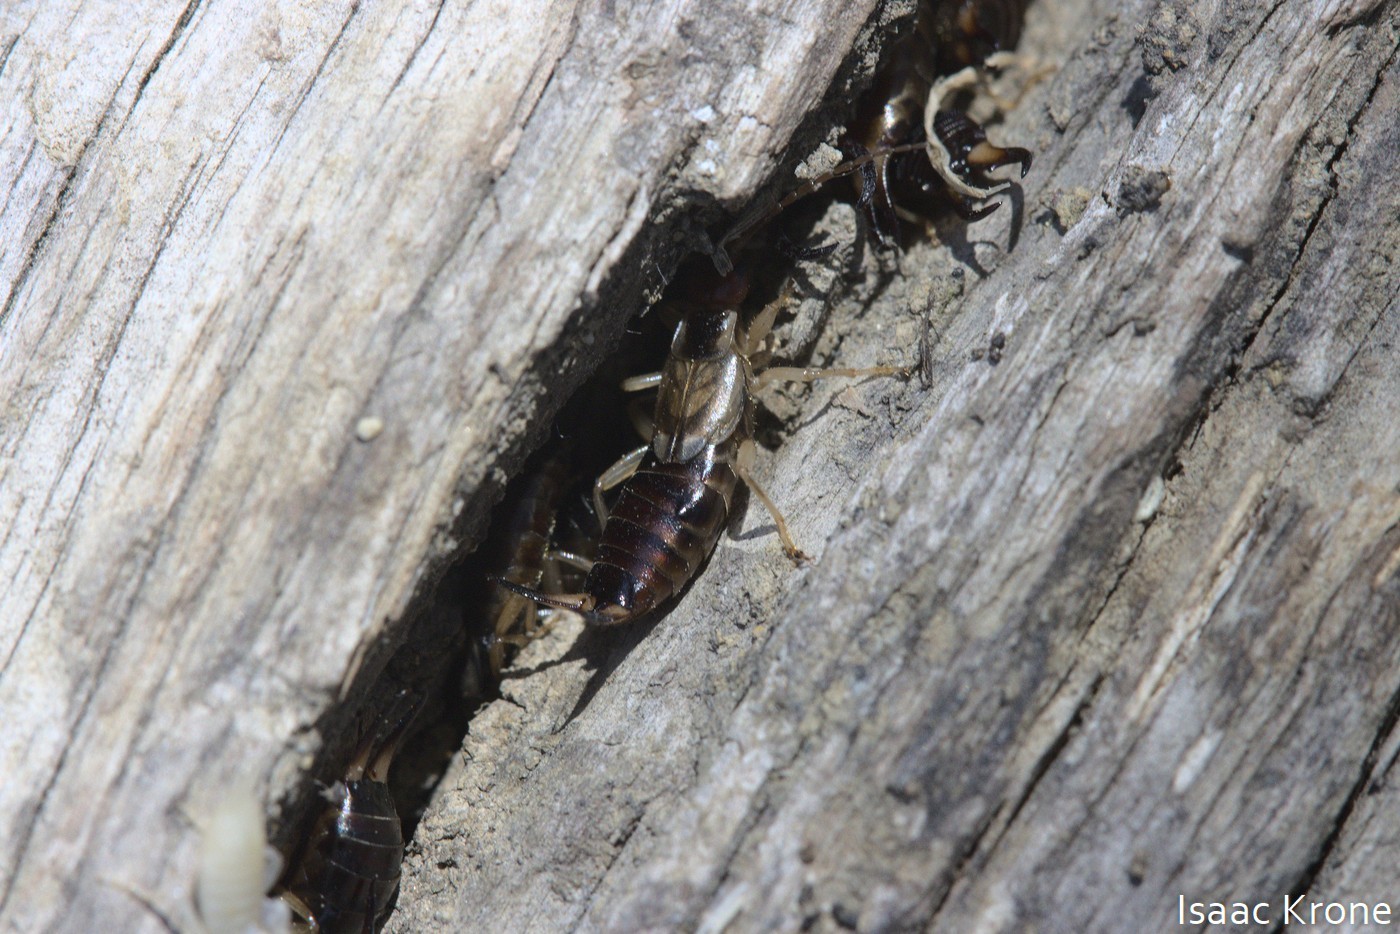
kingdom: Animalia
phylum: Arthropoda
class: Insecta
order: Dermaptera
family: Forficulidae
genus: Forficula
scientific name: Forficula
